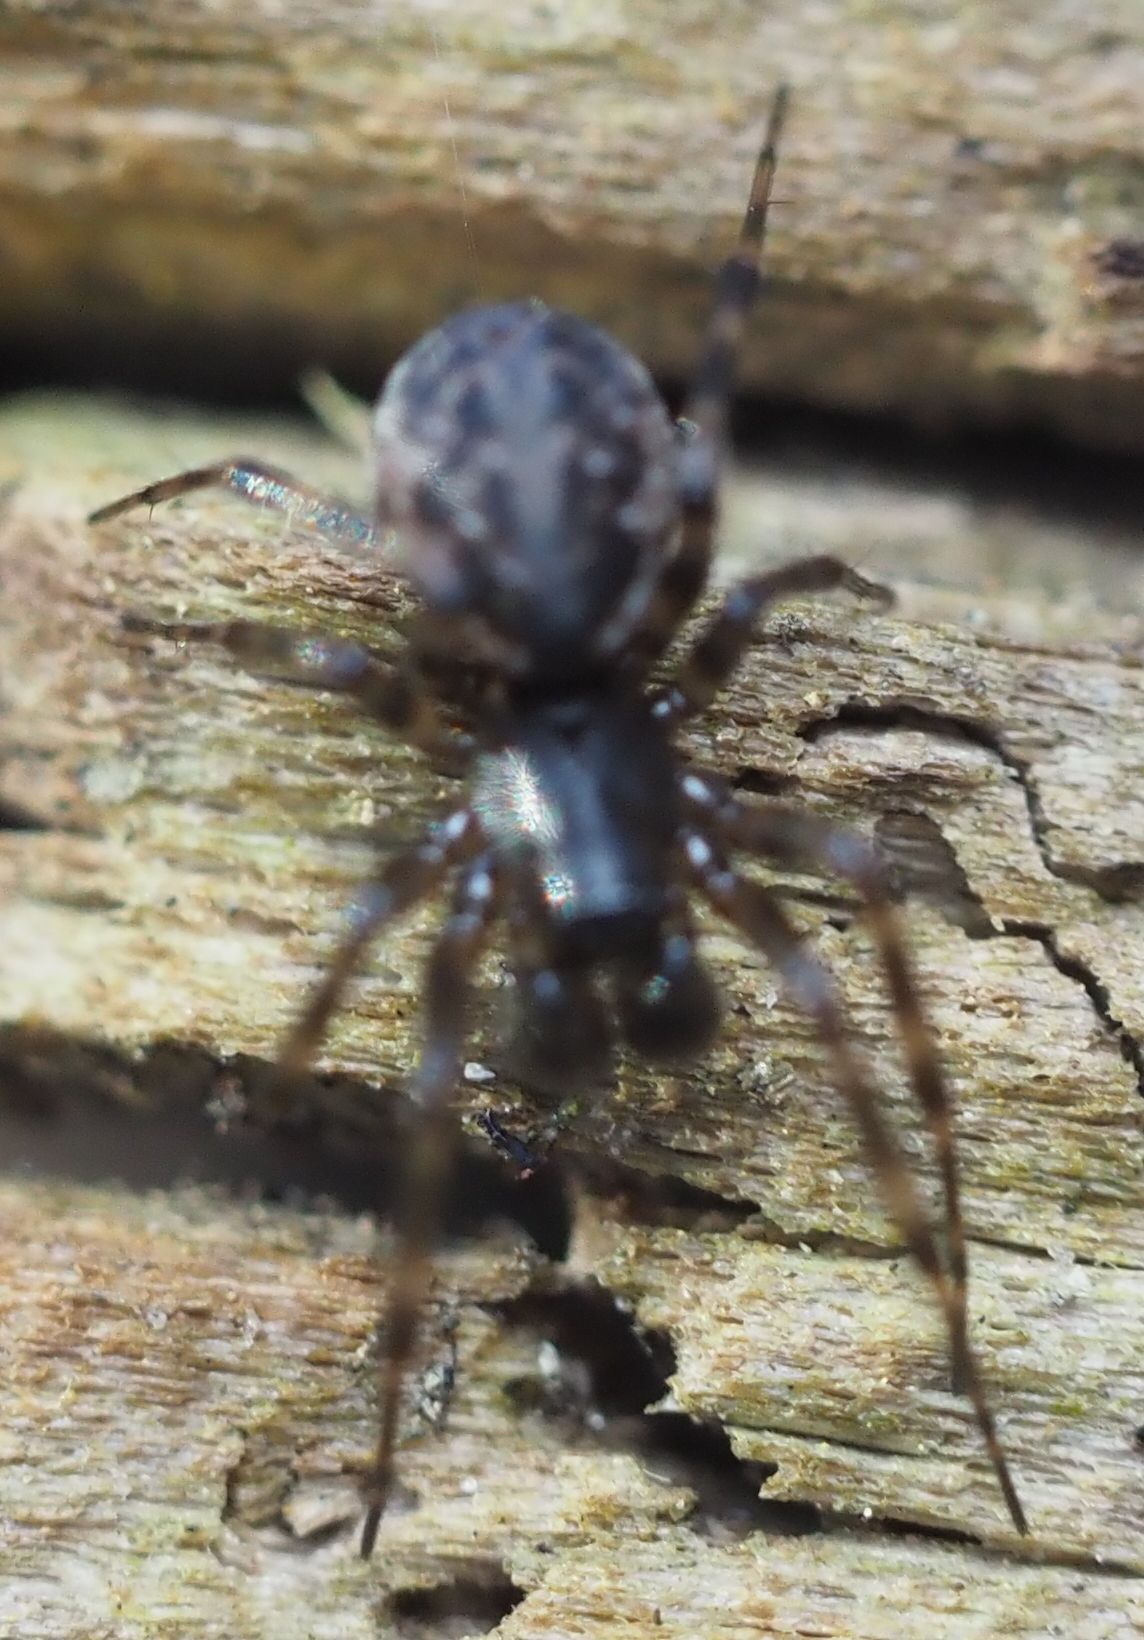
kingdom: Animalia
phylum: Arthropoda
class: Arachnida
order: Araneae
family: Linyphiidae
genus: Neriene
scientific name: Neriene clathrata
